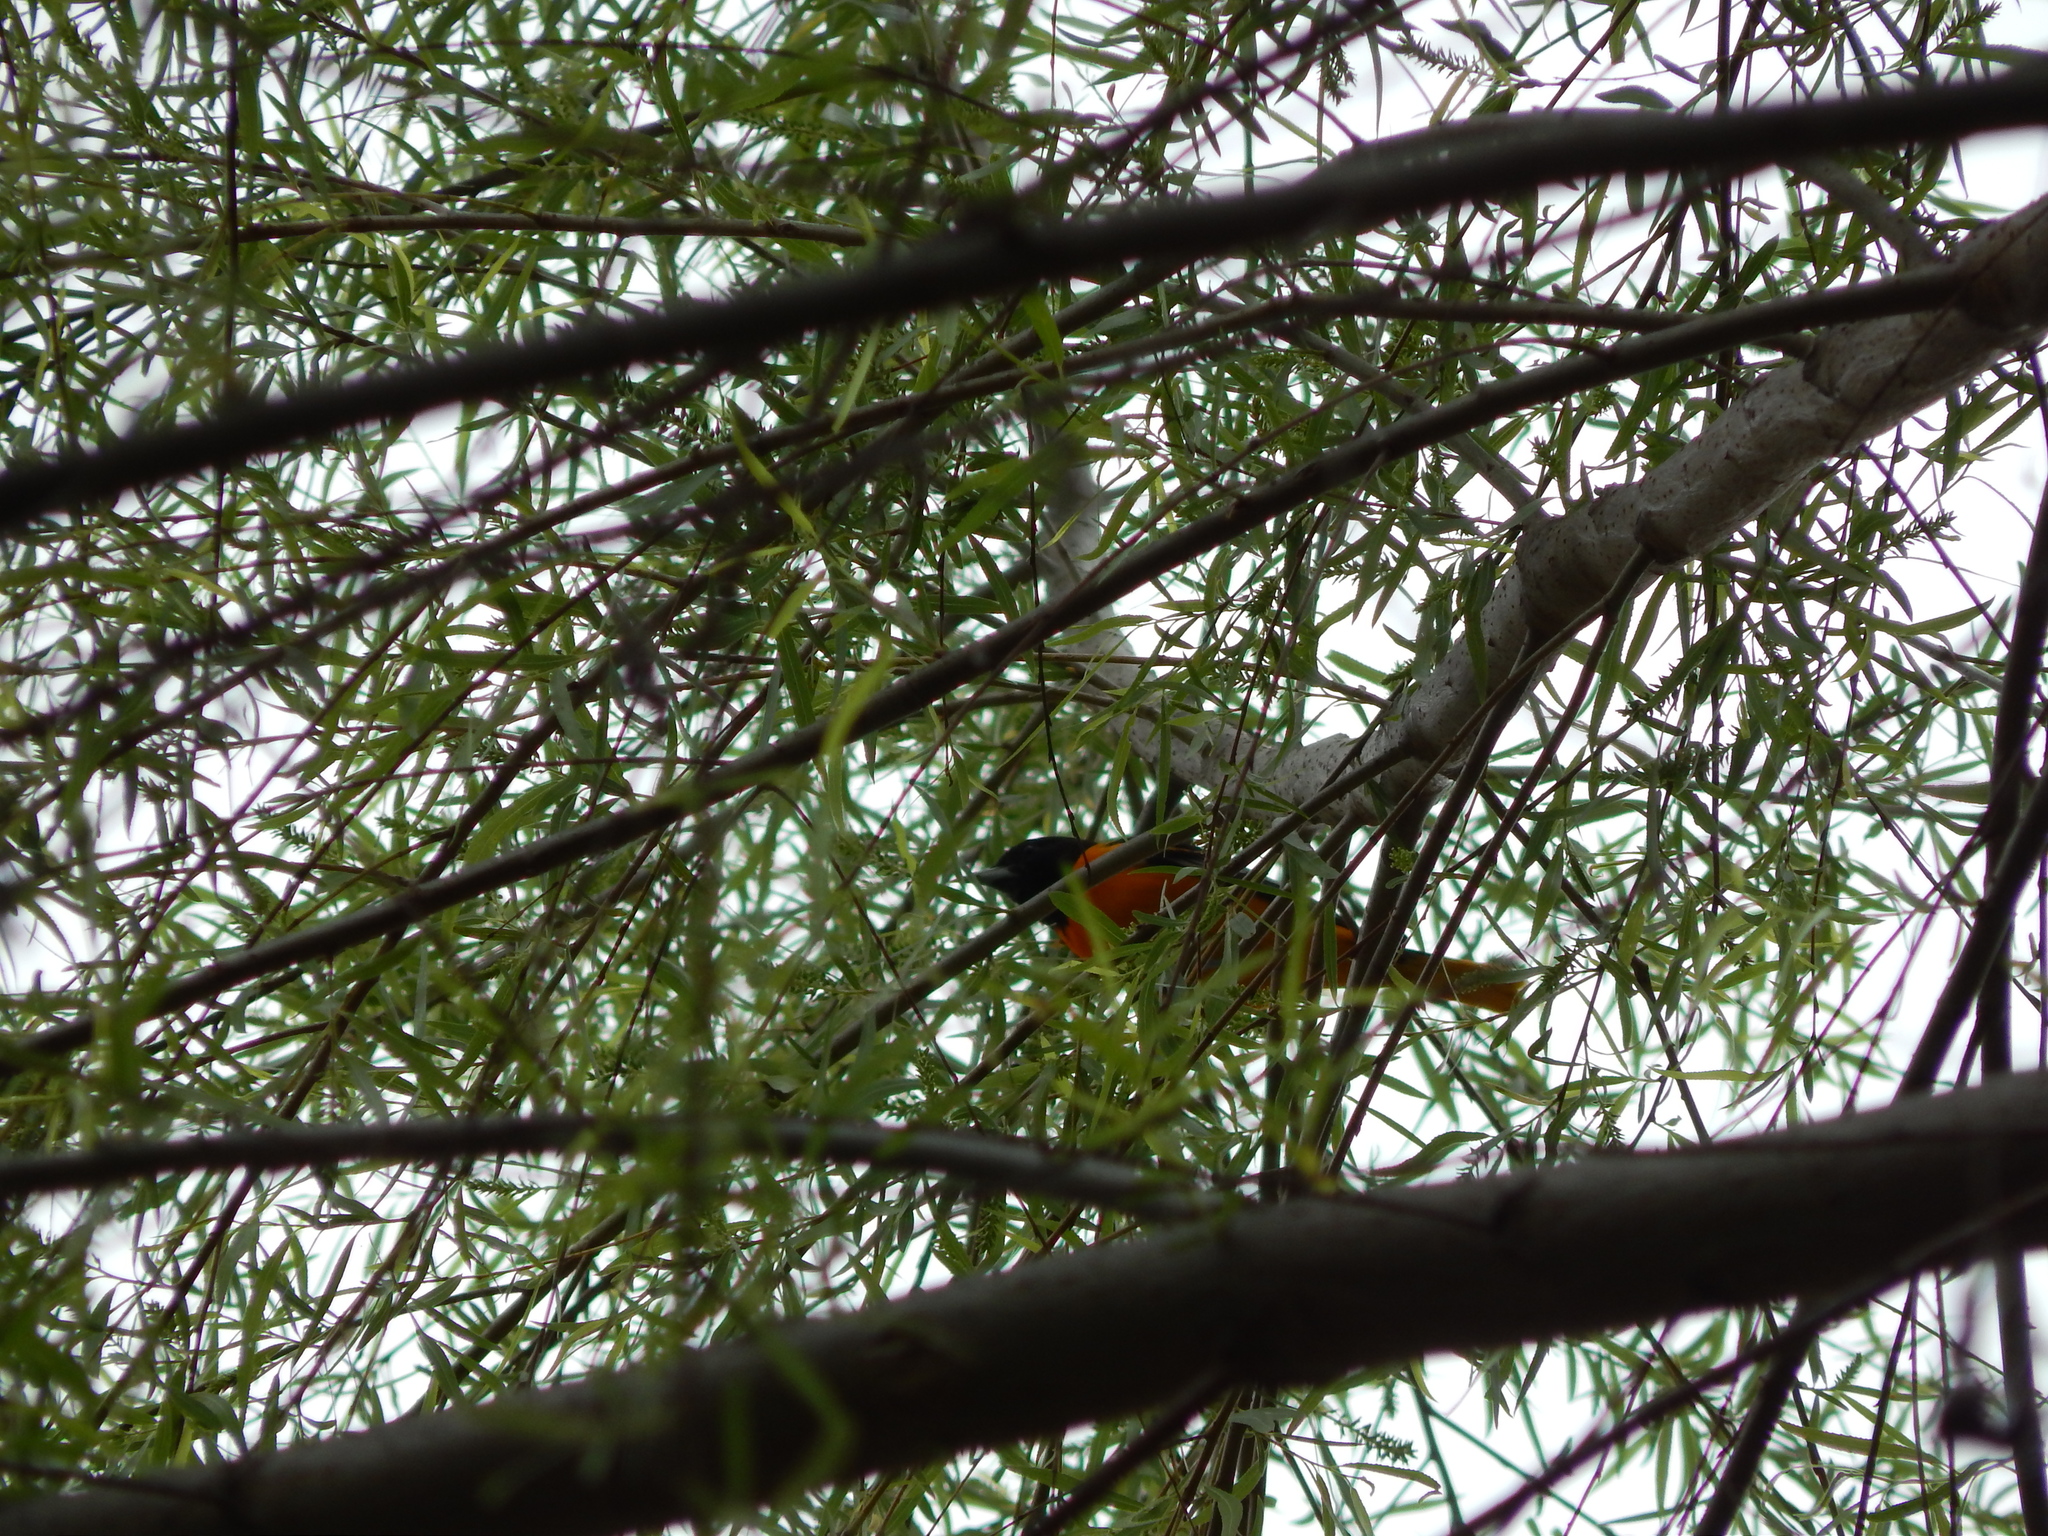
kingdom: Animalia
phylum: Chordata
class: Aves
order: Passeriformes
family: Icteridae
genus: Icterus
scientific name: Icterus galbula
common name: Baltimore oriole
